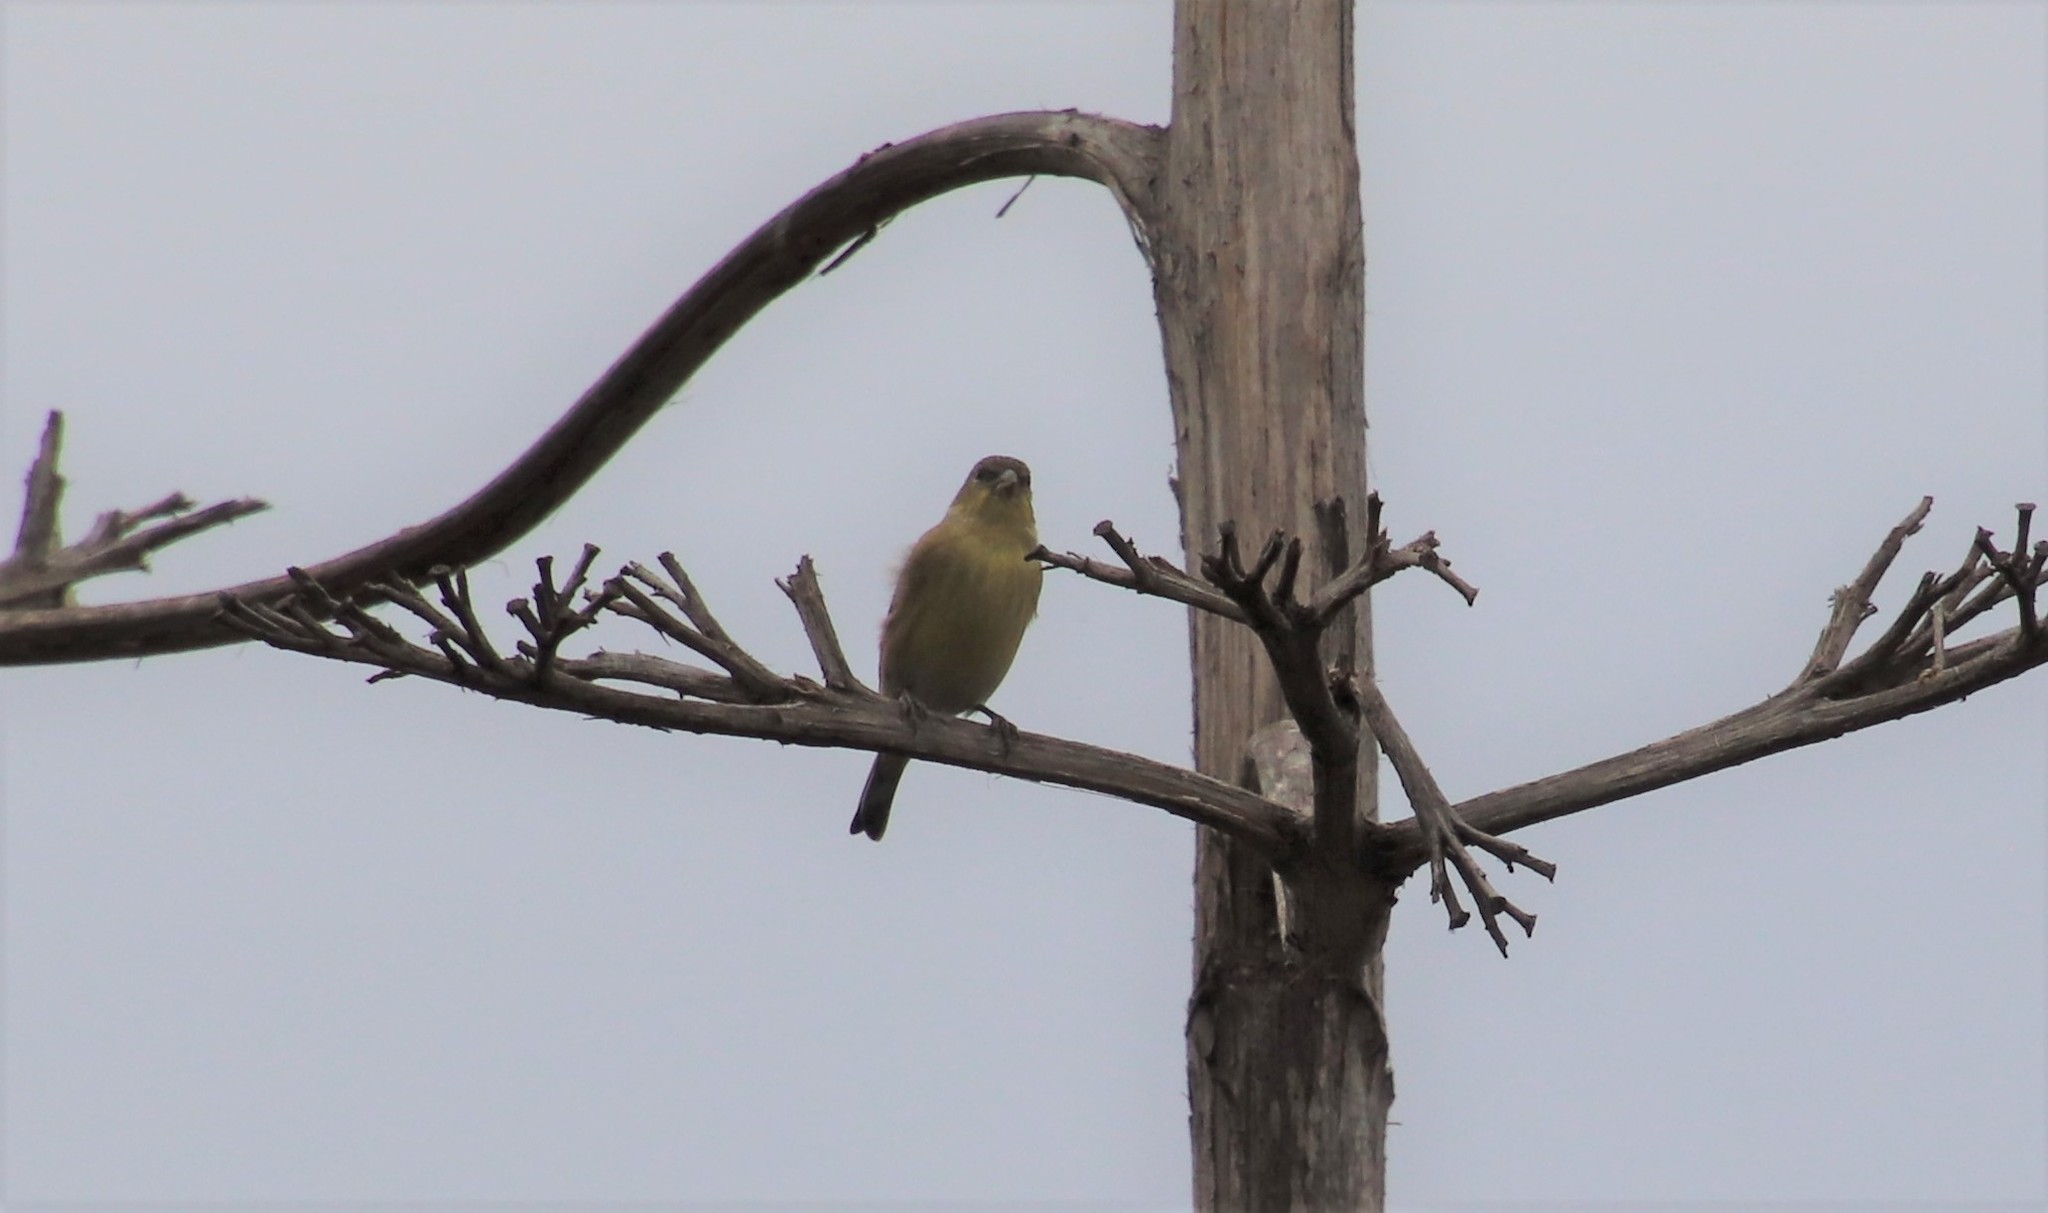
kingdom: Animalia
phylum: Chordata
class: Aves
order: Passeriformes
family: Fringillidae
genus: Spinus
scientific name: Spinus psaltria
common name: Lesser goldfinch
